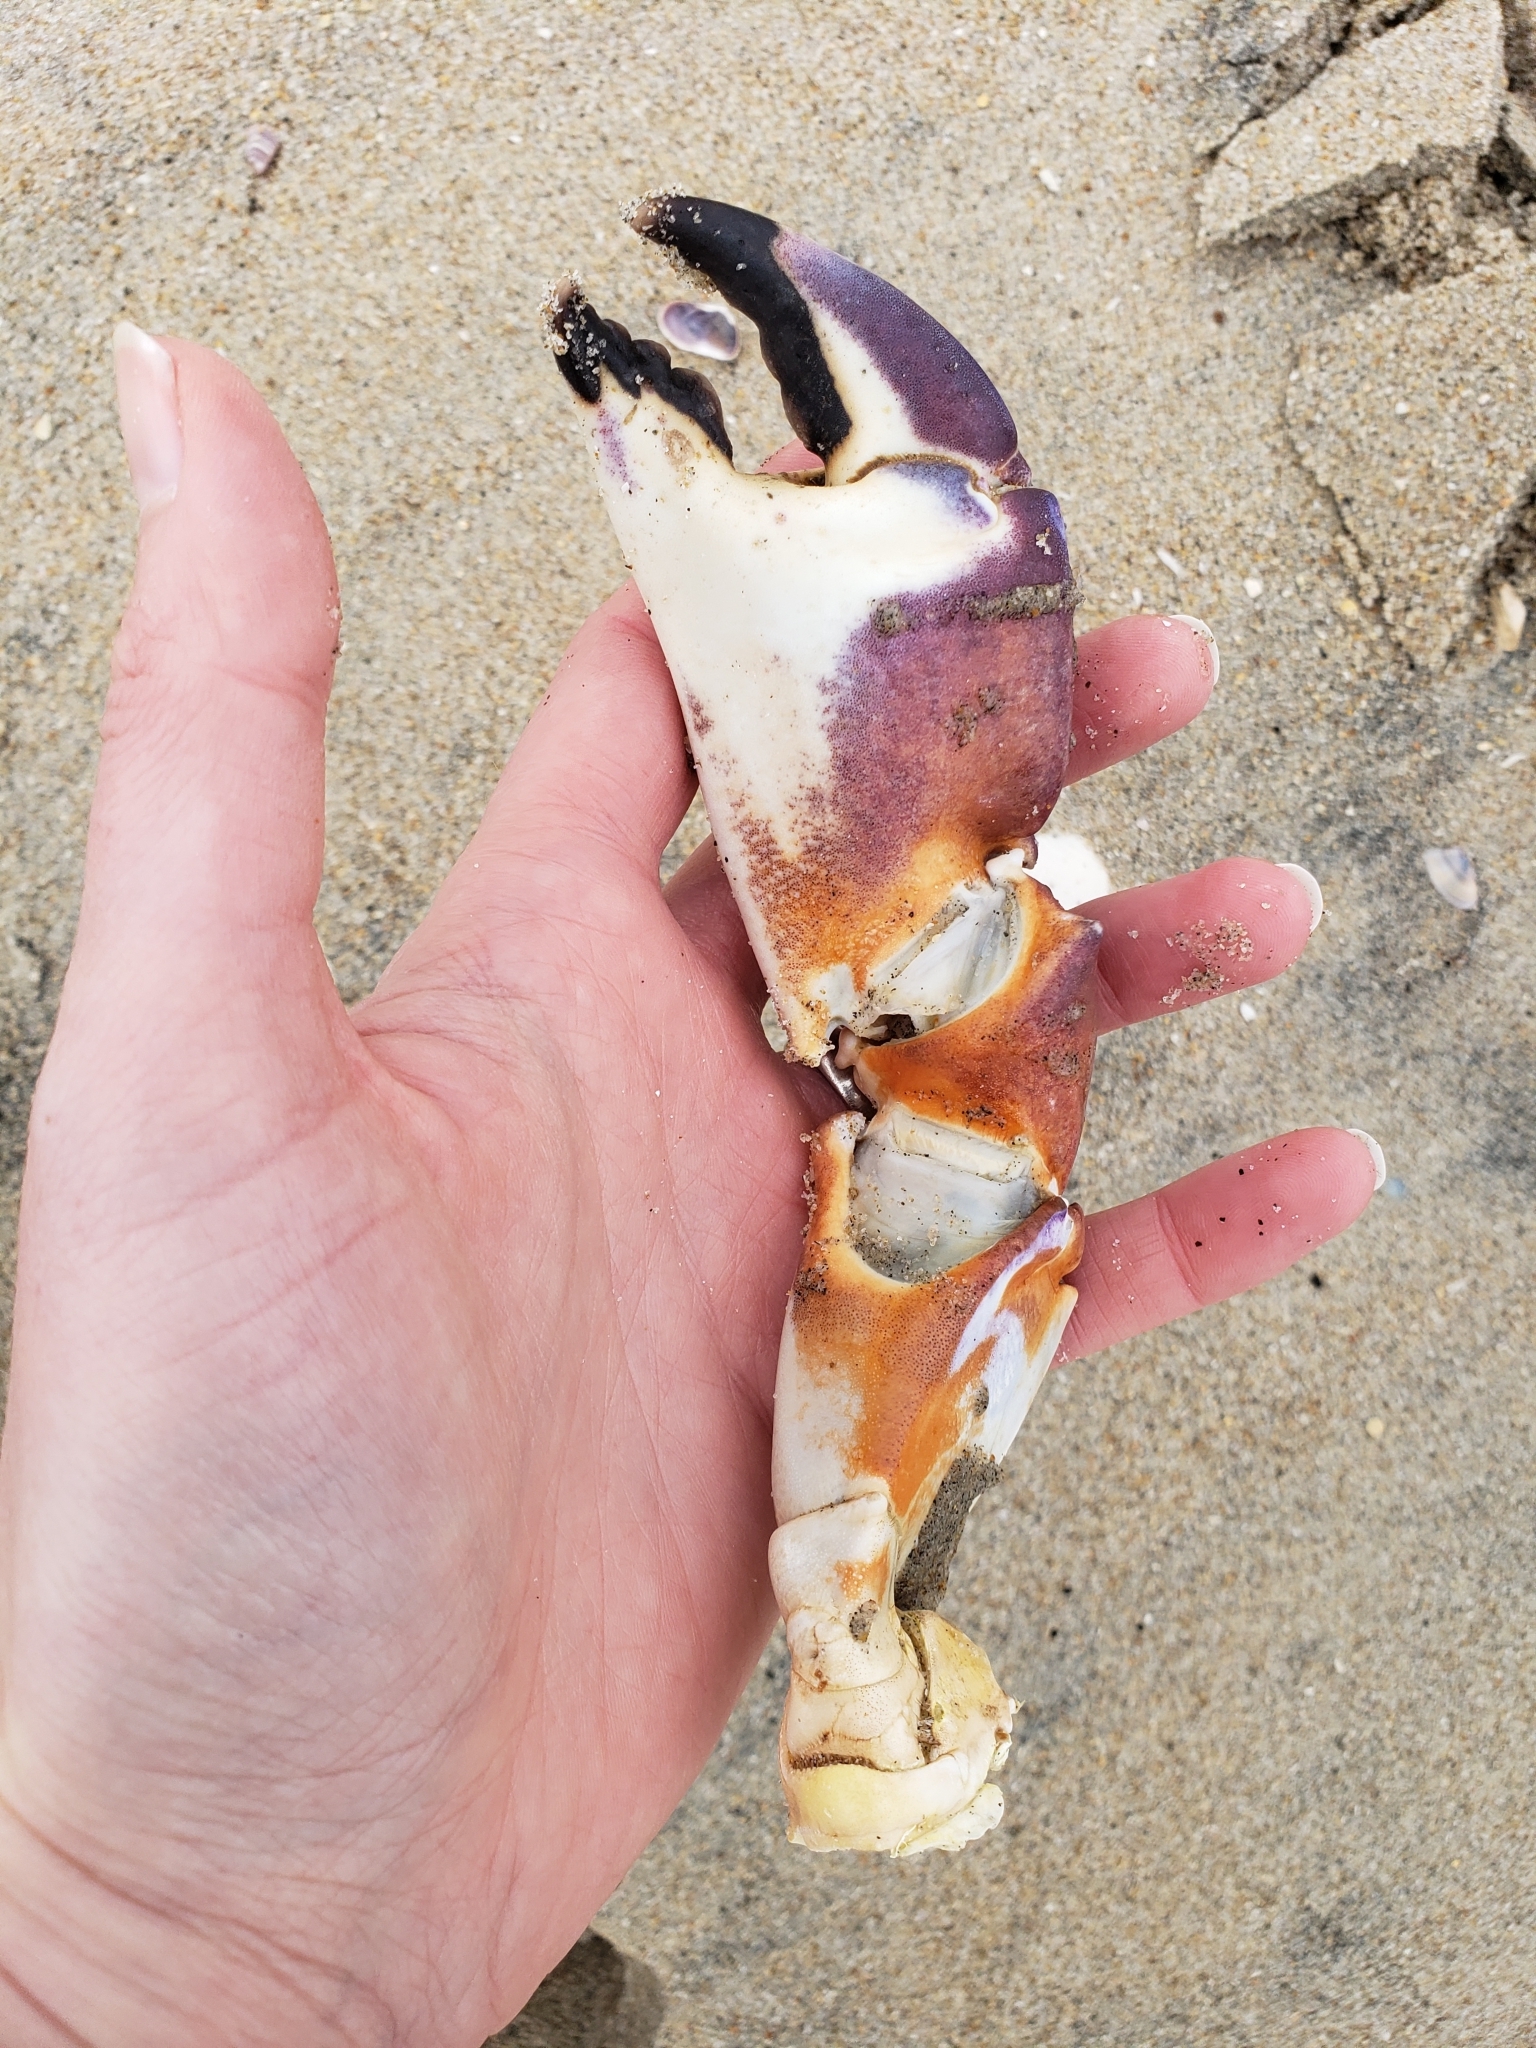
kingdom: Animalia
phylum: Arthropoda
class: Malacostraca
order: Decapoda
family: Cancridae
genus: Metacarcinus
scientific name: Metacarcinus anthonyi
